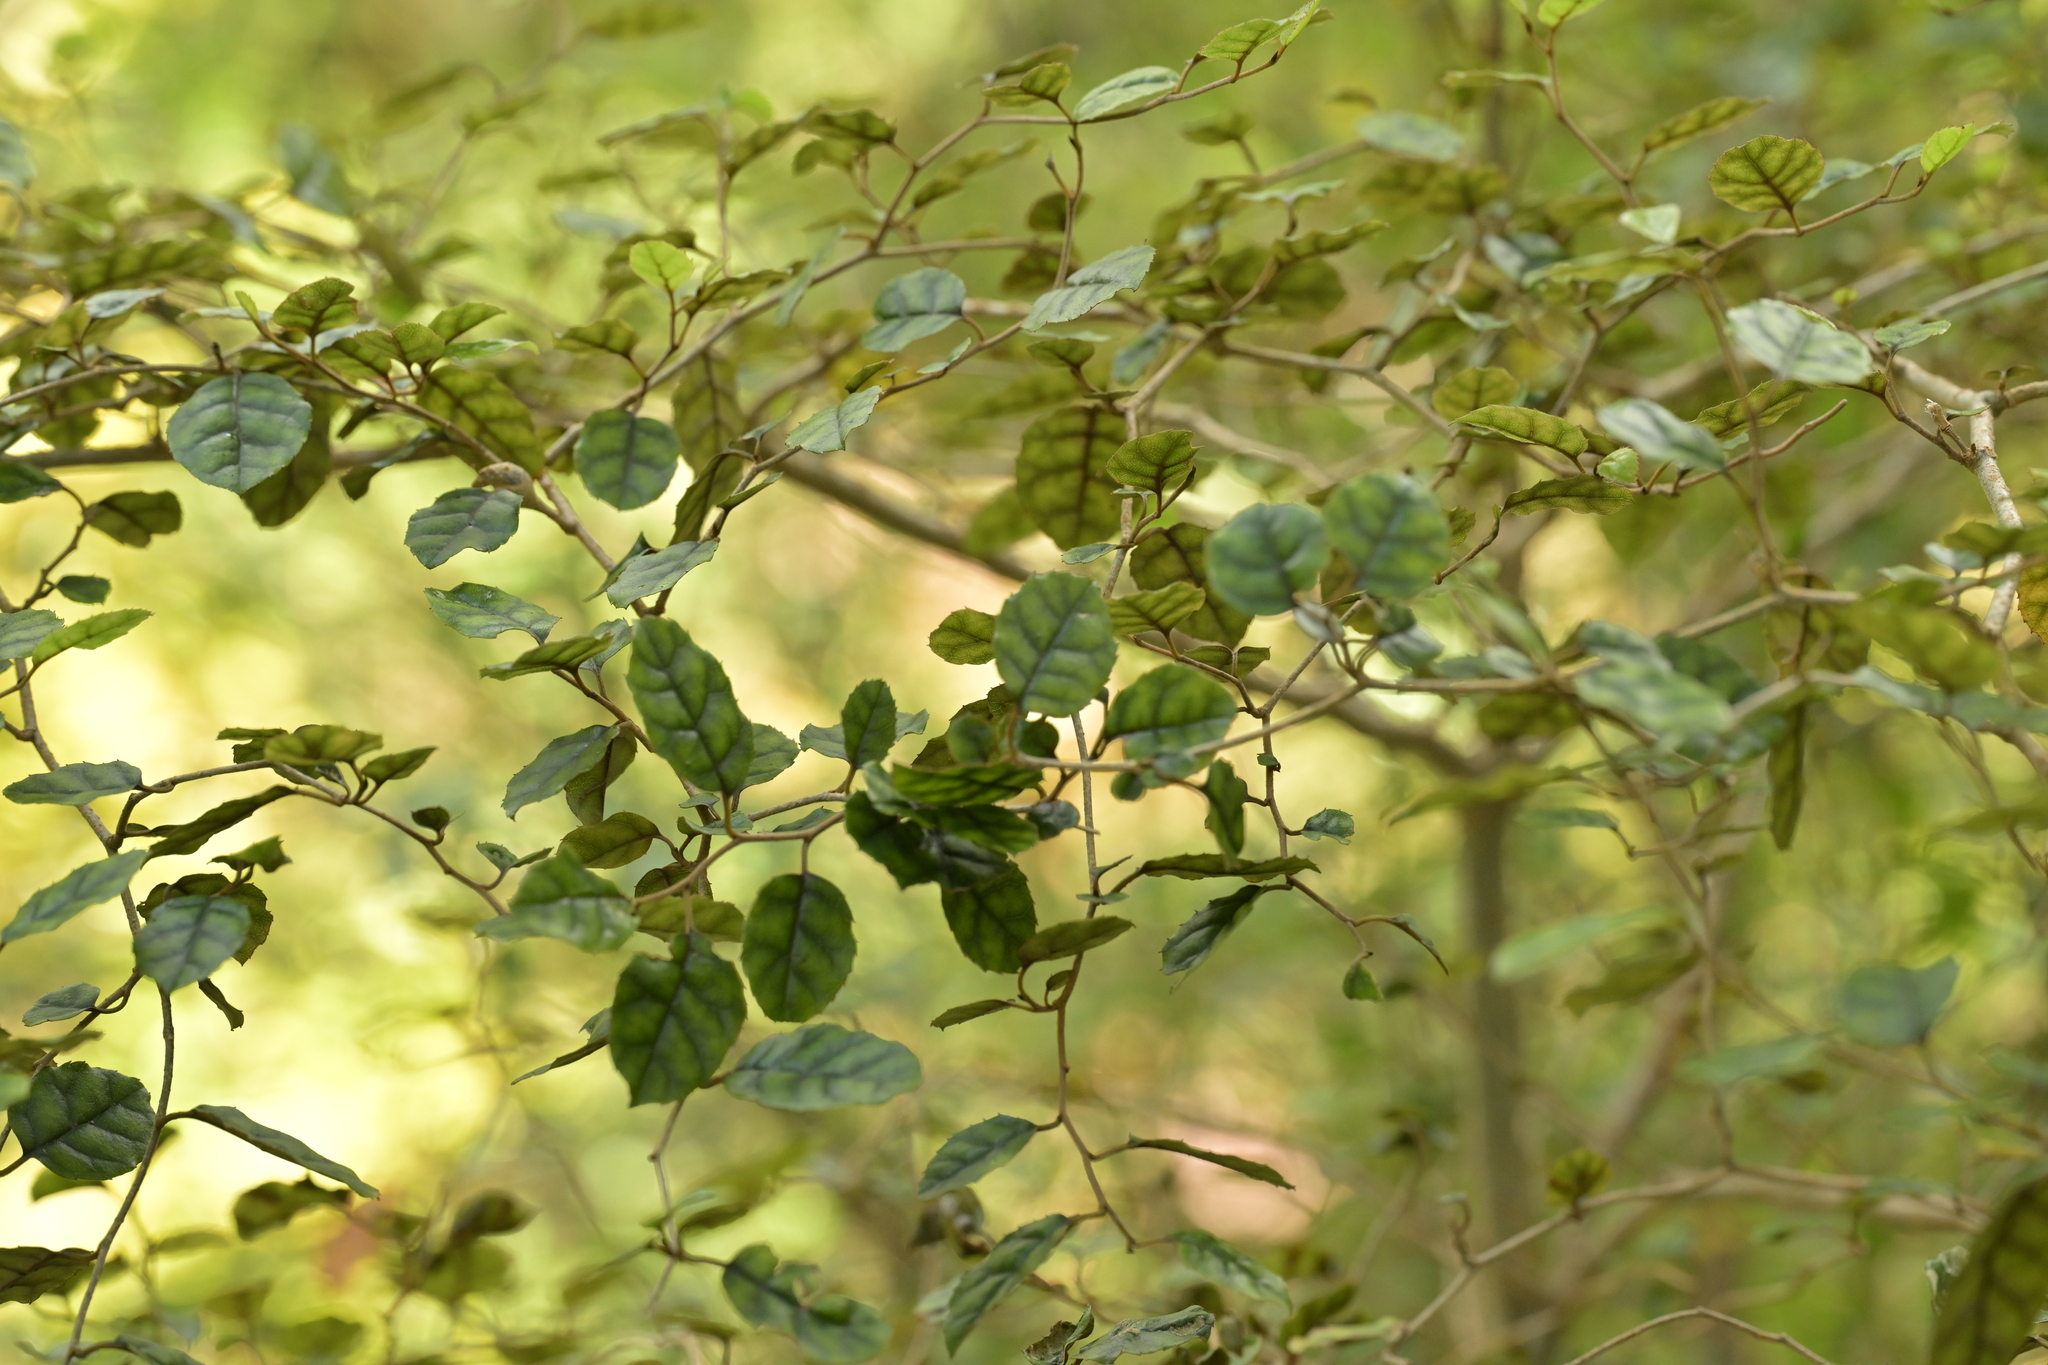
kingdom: Plantae
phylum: Tracheophyta
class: Magnoliopsida
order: Asterales
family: Rousseaceae
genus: Carpodetus
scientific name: Carpodetus serratus
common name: White mapau
